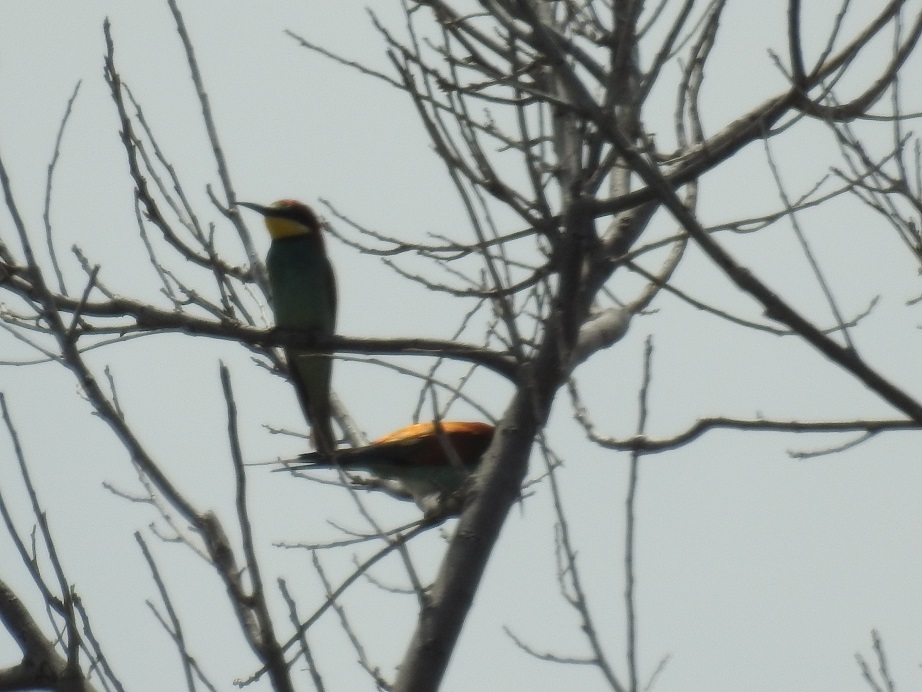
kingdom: Animalia
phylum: Chordata
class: Aves
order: Coraciiformes
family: Meropidae
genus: Merops
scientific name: Merops apiaster
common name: European bee-eater
